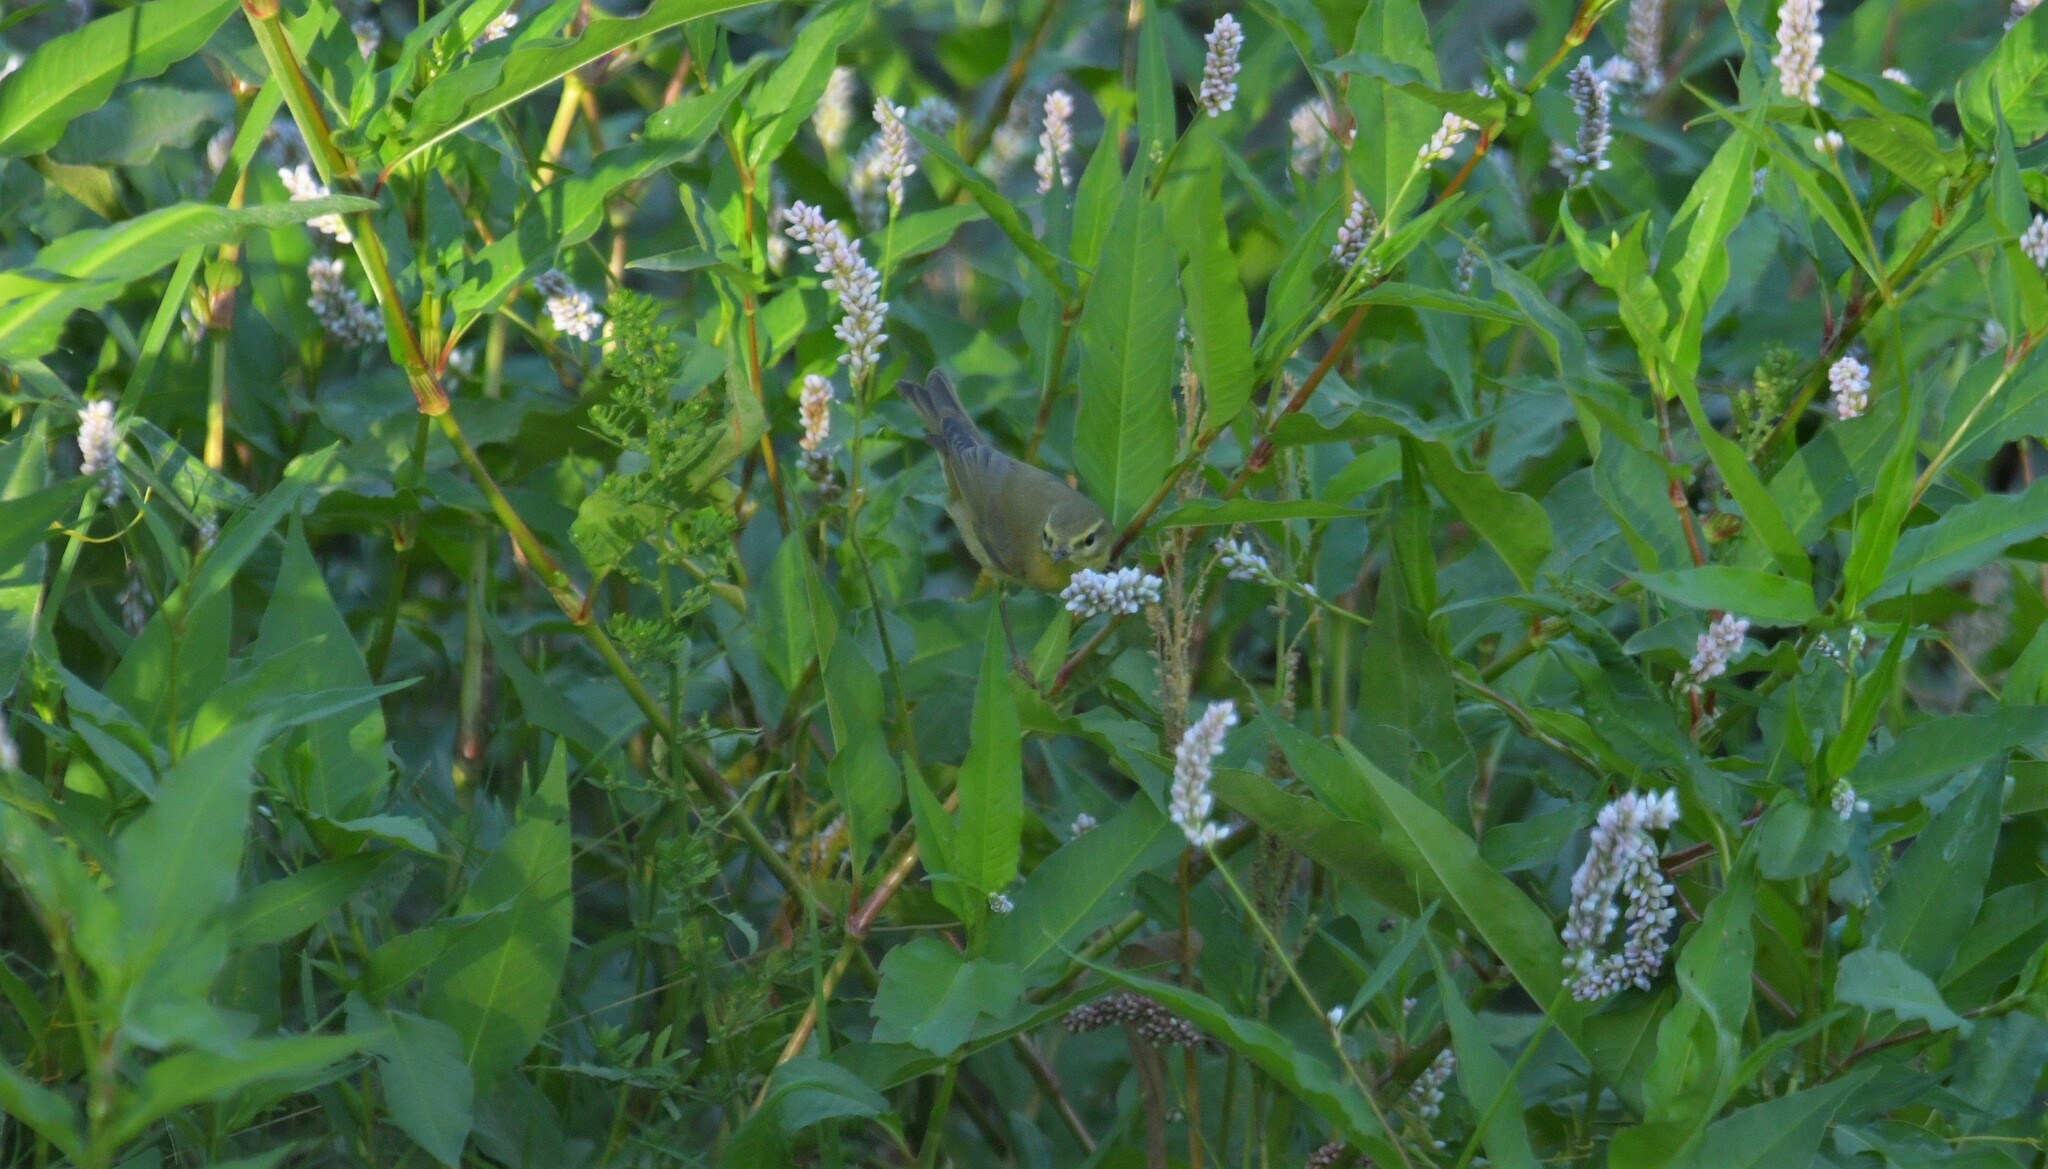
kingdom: Animalia
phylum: Chordata
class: Aves
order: Passeriformes
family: Phylloscopidae
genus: Phylloscopus
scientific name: Phylloscopus trochilus
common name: Willow warbler
